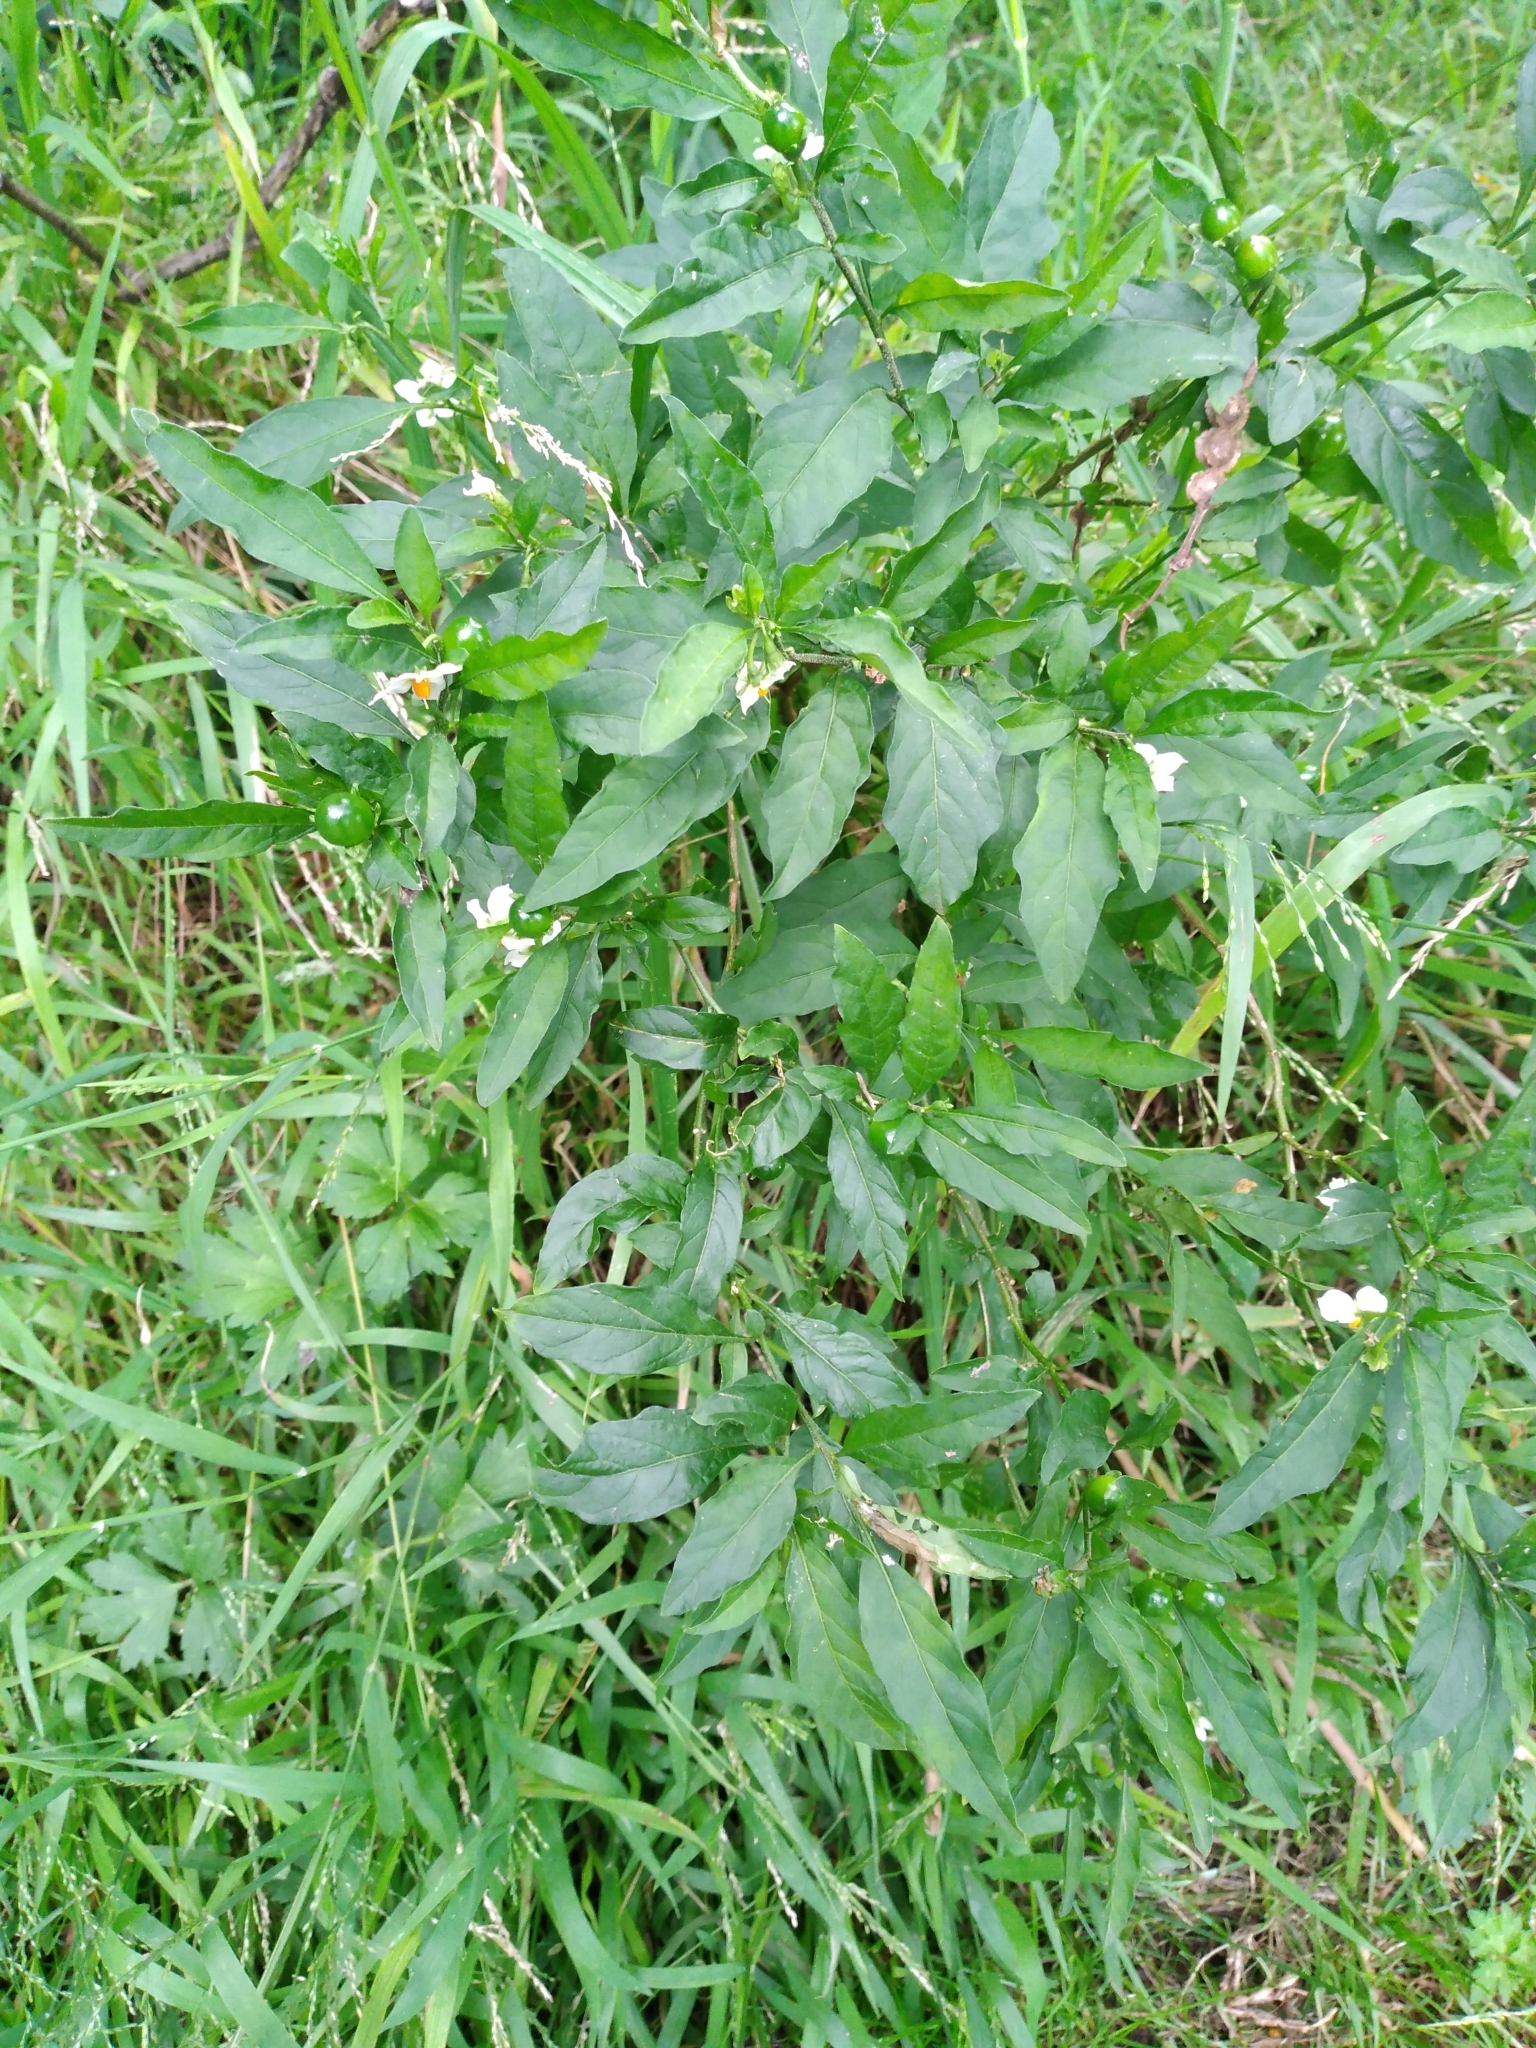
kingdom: Plantae
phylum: Tracheophyta
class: Magnoliopsida
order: Solanales
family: Solanaceae
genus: Solanum
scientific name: Solanum pseudocapsicum
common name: Jerusalem cherry
